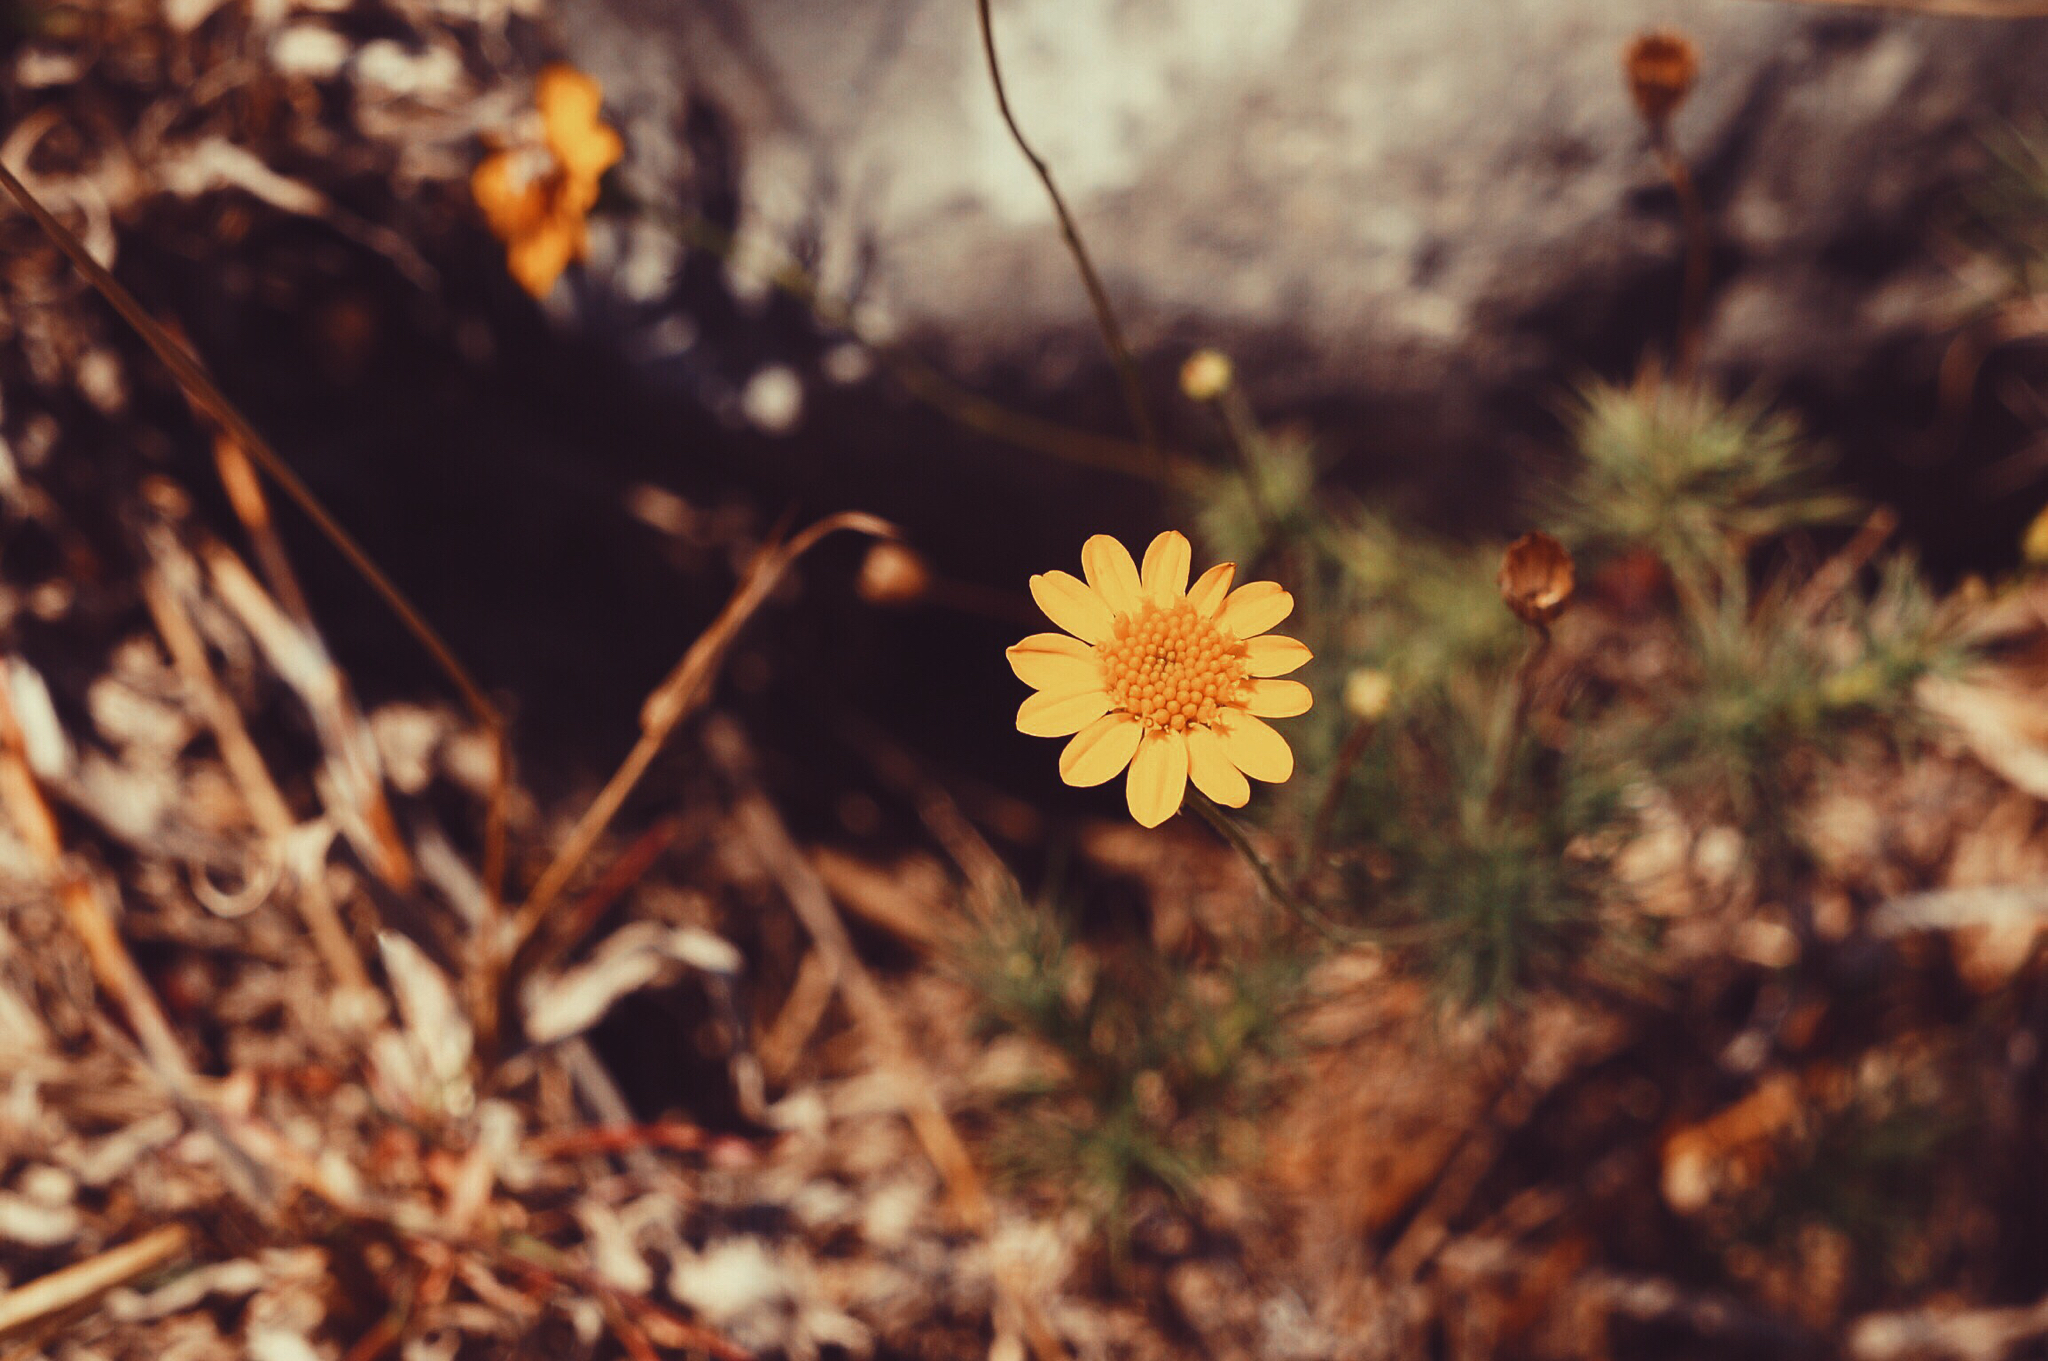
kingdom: Plantae
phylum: Tracheophyta
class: Magnoliopsida
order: Asterales
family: Asteraceae
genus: Thymophylla
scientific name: Thymophylla pentachaeta
